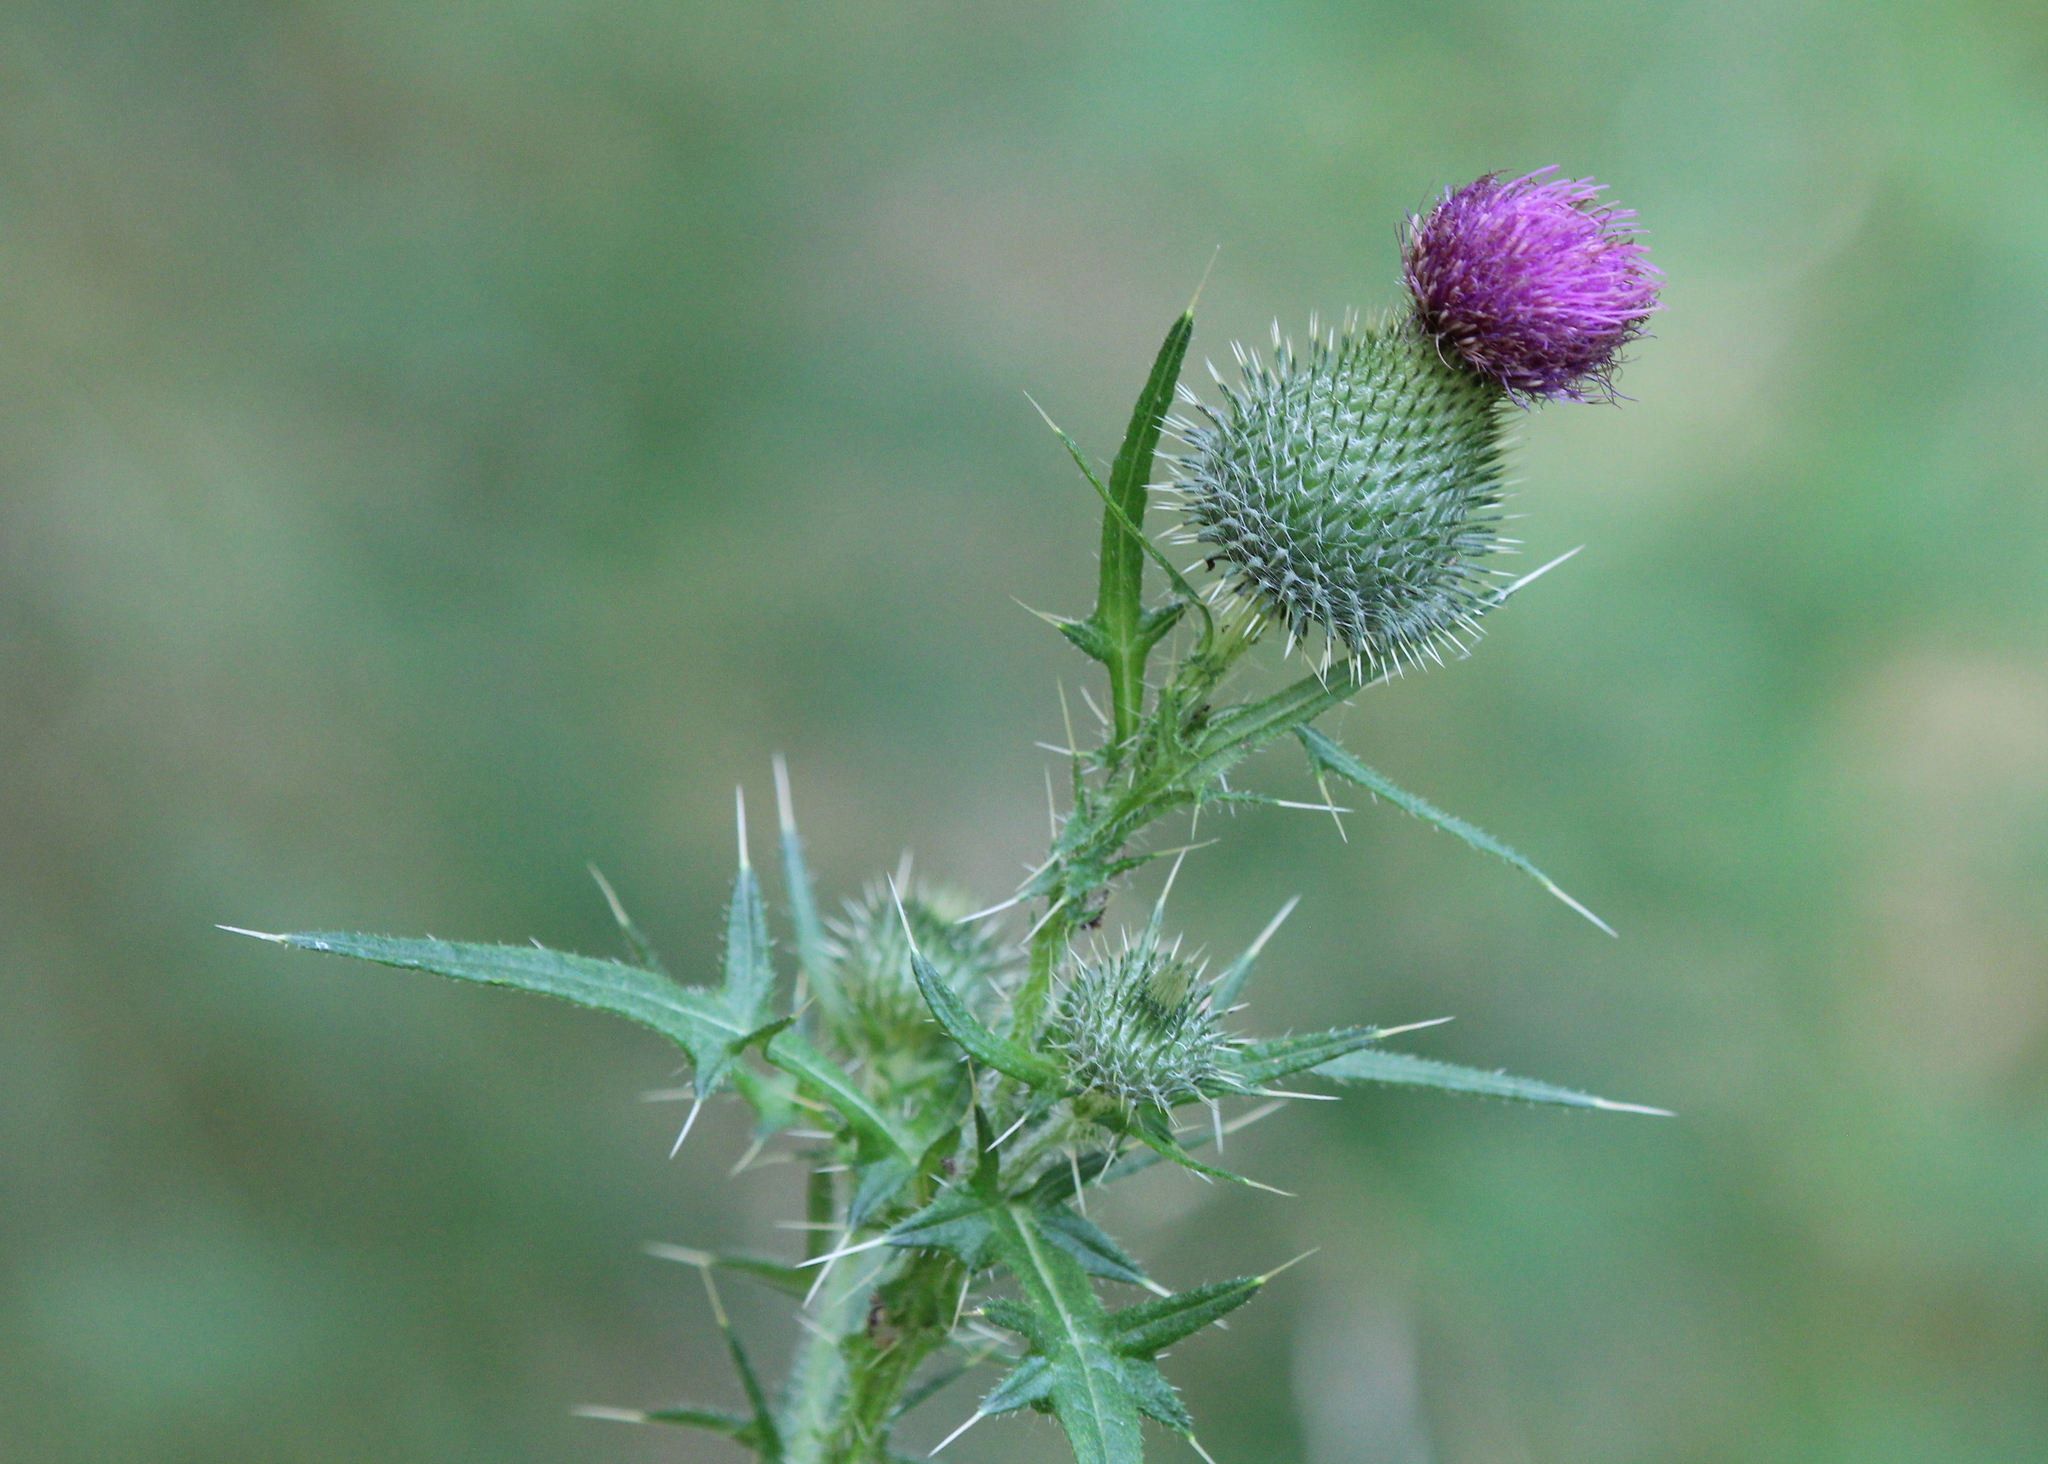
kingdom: Plantae
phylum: Tracheophyta
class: Magnoliopsida
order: Asterales
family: Asteraceae
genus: Cirsium
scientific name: Cirsium vulgare
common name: Bull thistle
